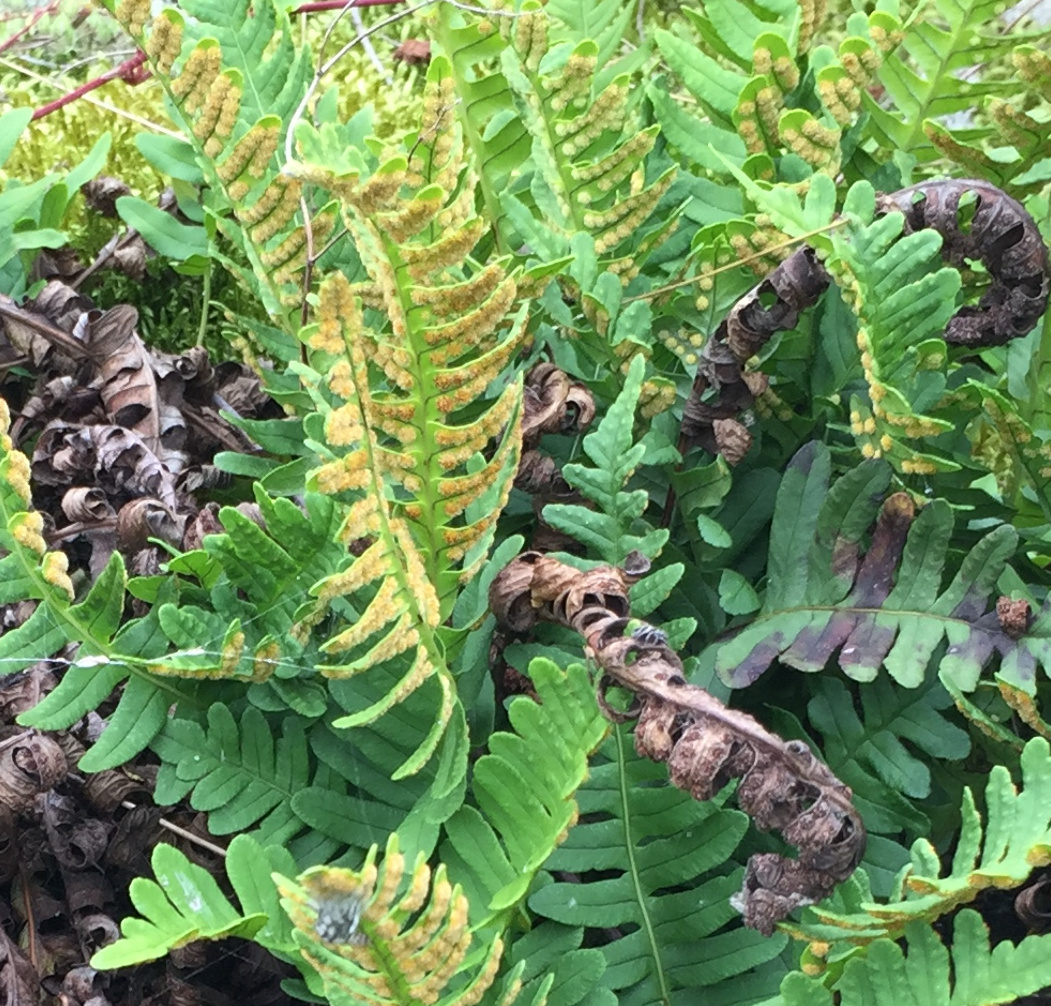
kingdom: Plantae
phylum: Tracheophyta
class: Polypodiopsida
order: Polypodiales
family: Polypodiaceae
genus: Polypodium
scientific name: Polypodium virginianum
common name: American wall fern
